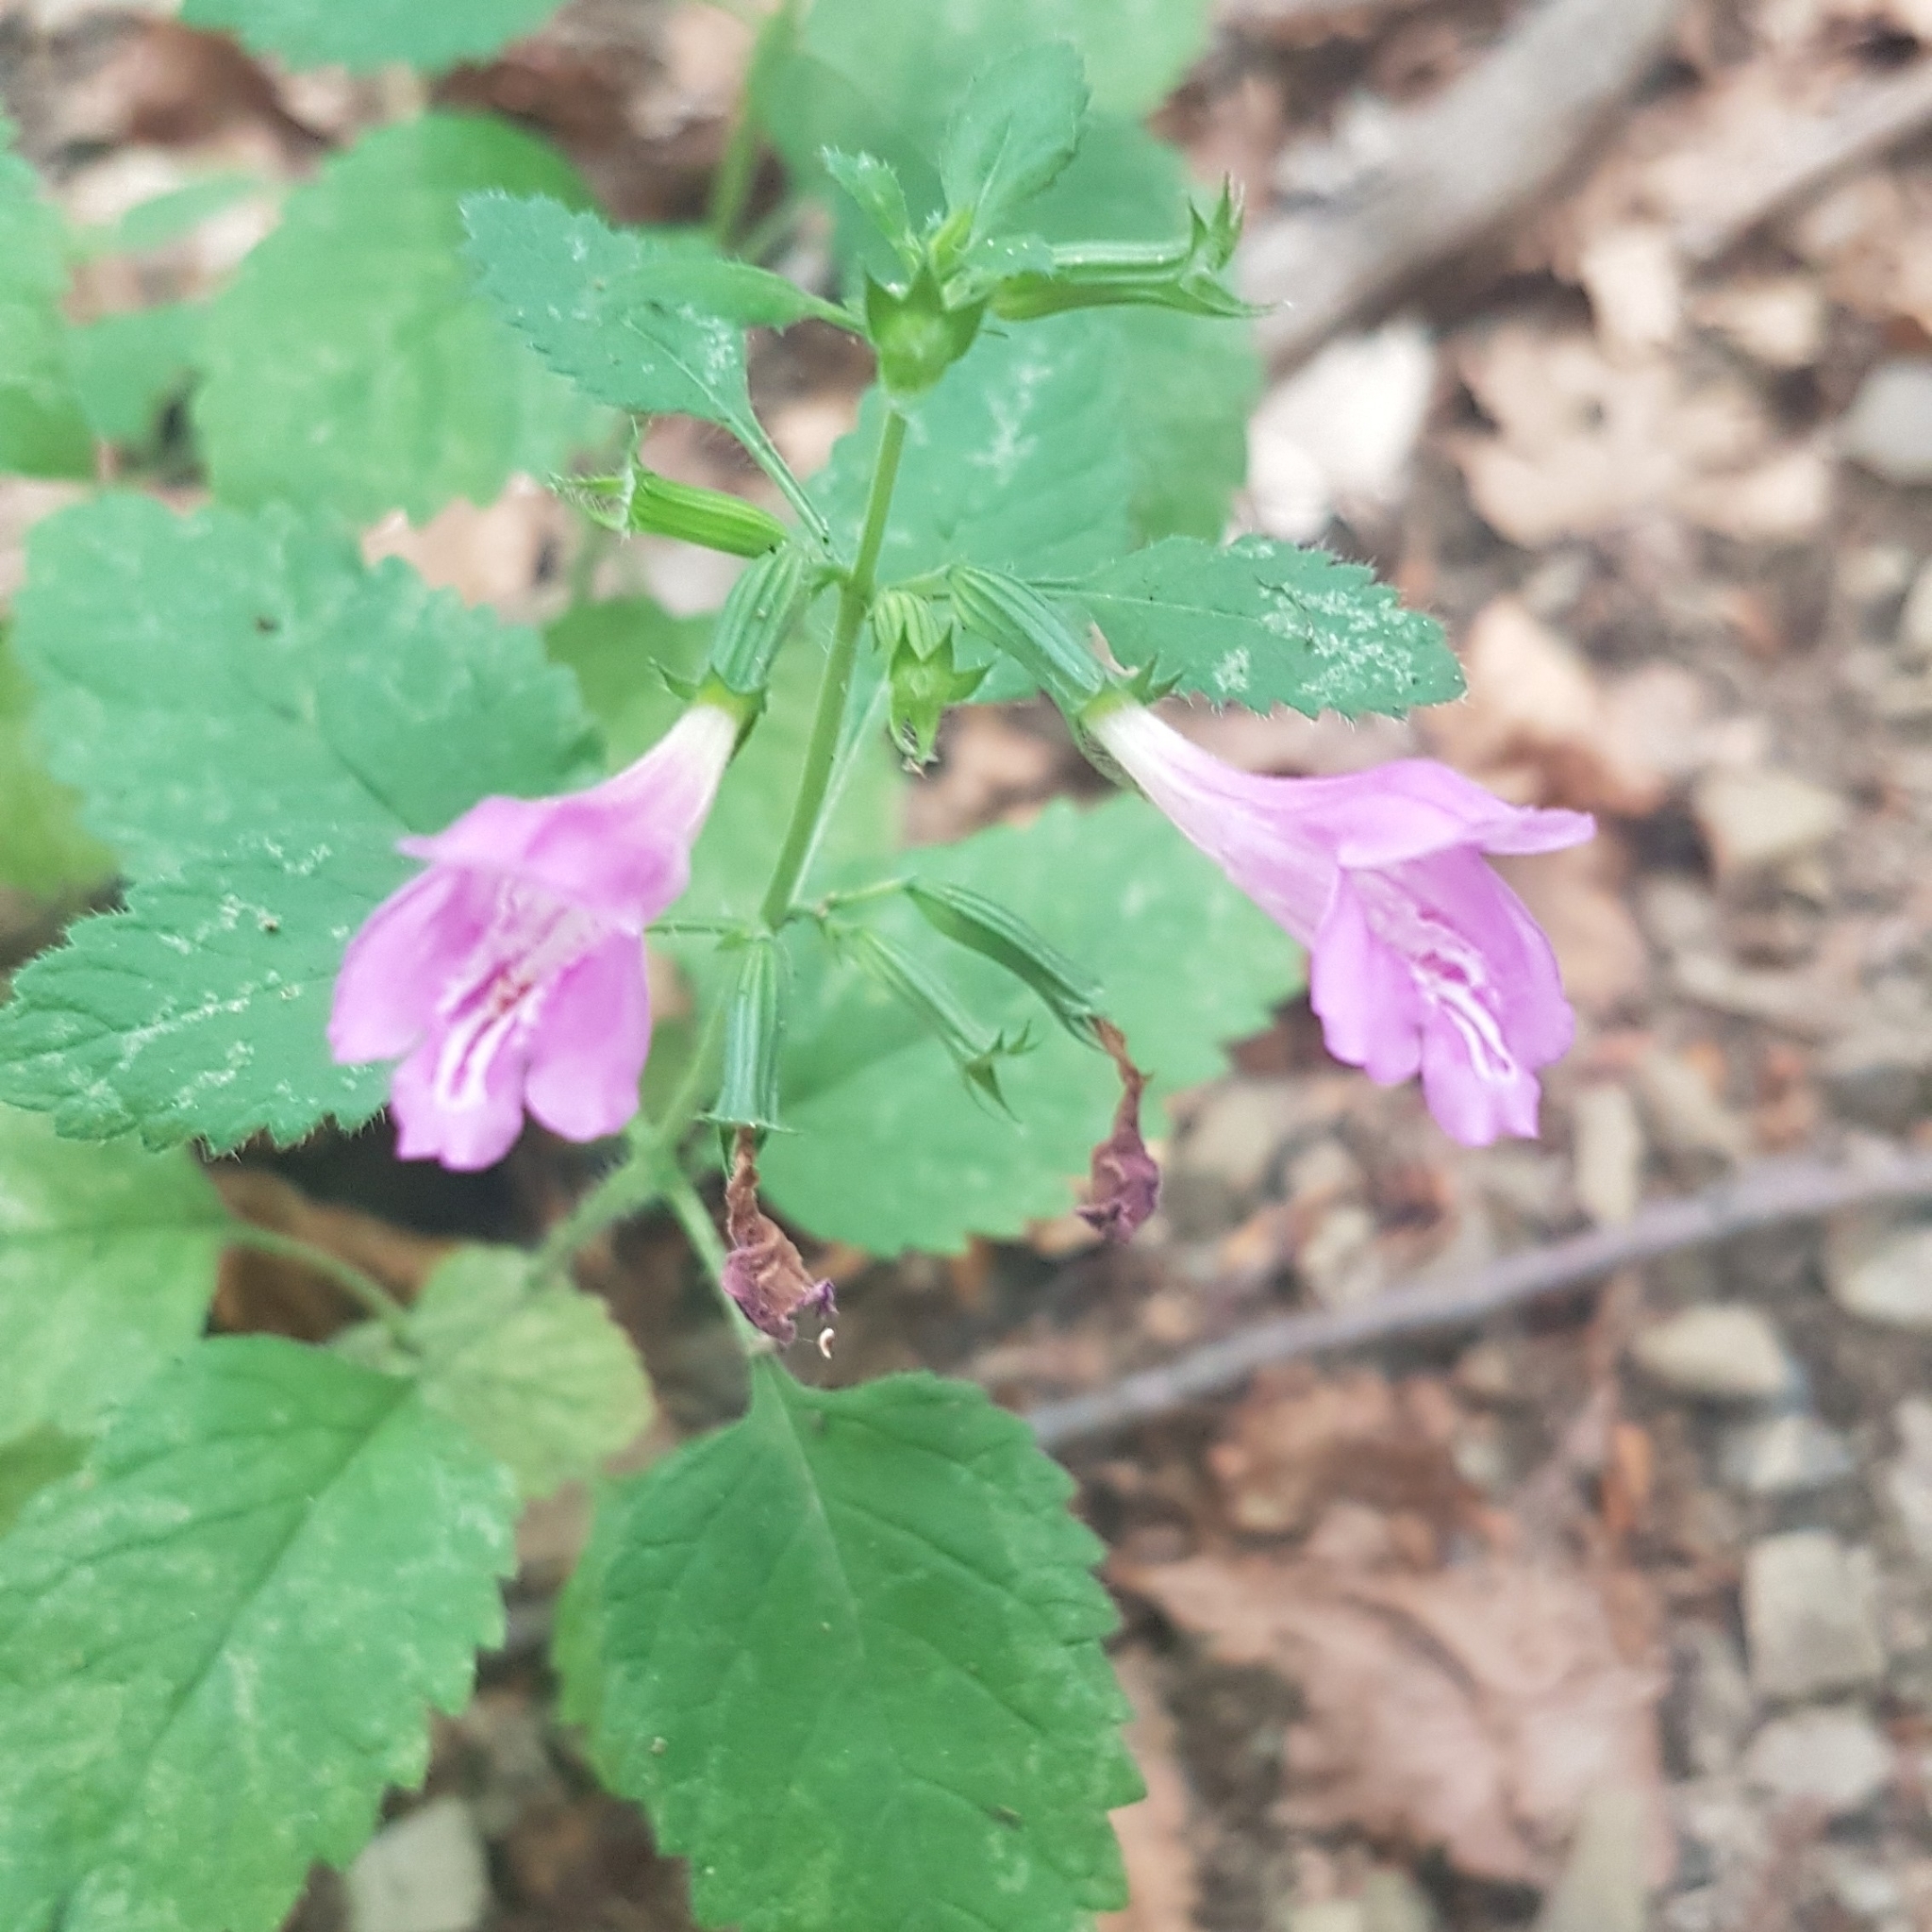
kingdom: Plantae
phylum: Tracheophyta
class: Magnoliopsida
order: Lamiales
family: Lamiaceae
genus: Clinopodium
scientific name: Clinopodium grandiflorum
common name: Greater calamint
